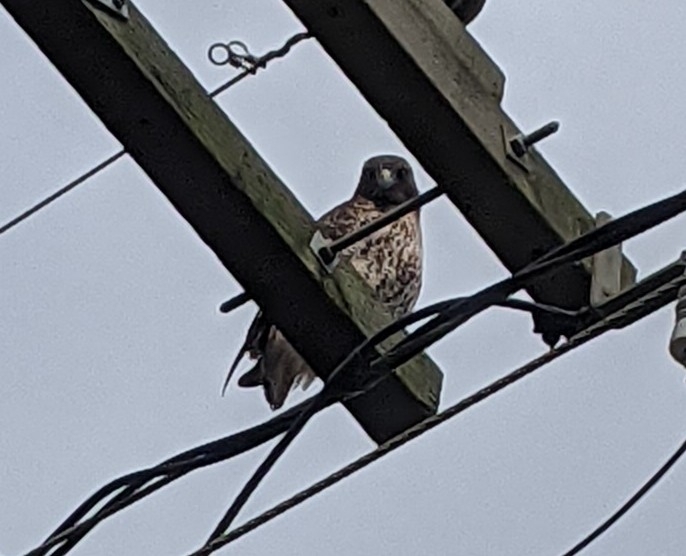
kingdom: Animalia
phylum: Chordata
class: Aves
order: Accipitriformes
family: Accipitridae
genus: Buteo
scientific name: Buteo jamaicensis
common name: Red-tailed hawk
